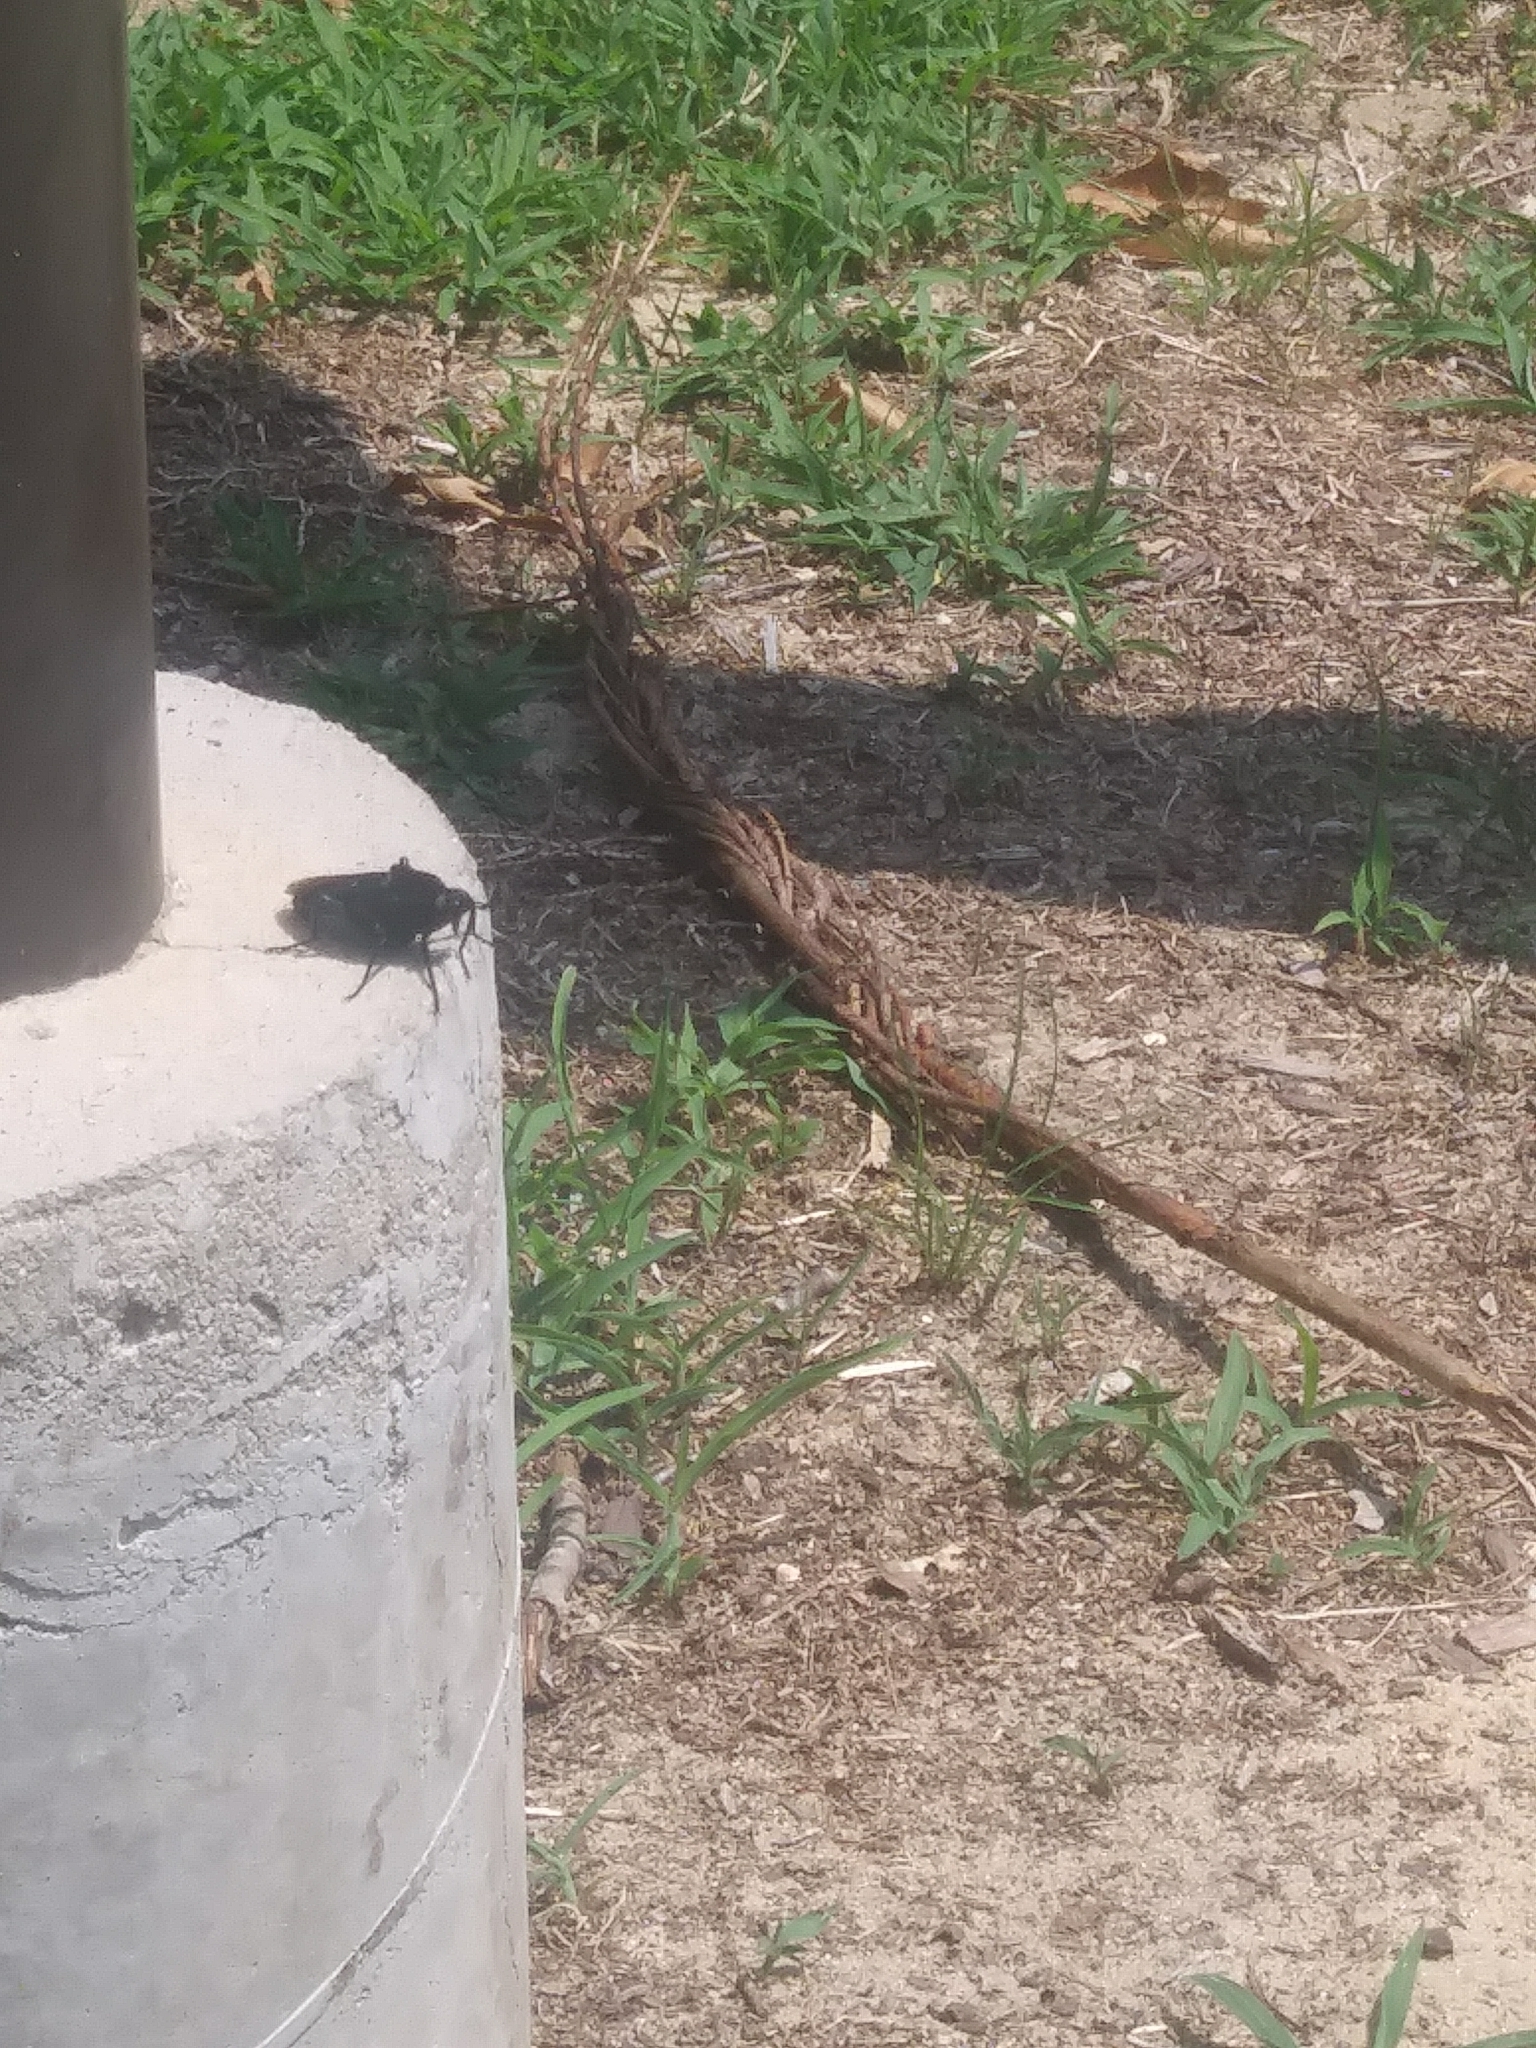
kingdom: Animalia
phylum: Arthropoda
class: Insecta
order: Diptera
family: Mydidae
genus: Mydas
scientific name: Mydas clavatus
